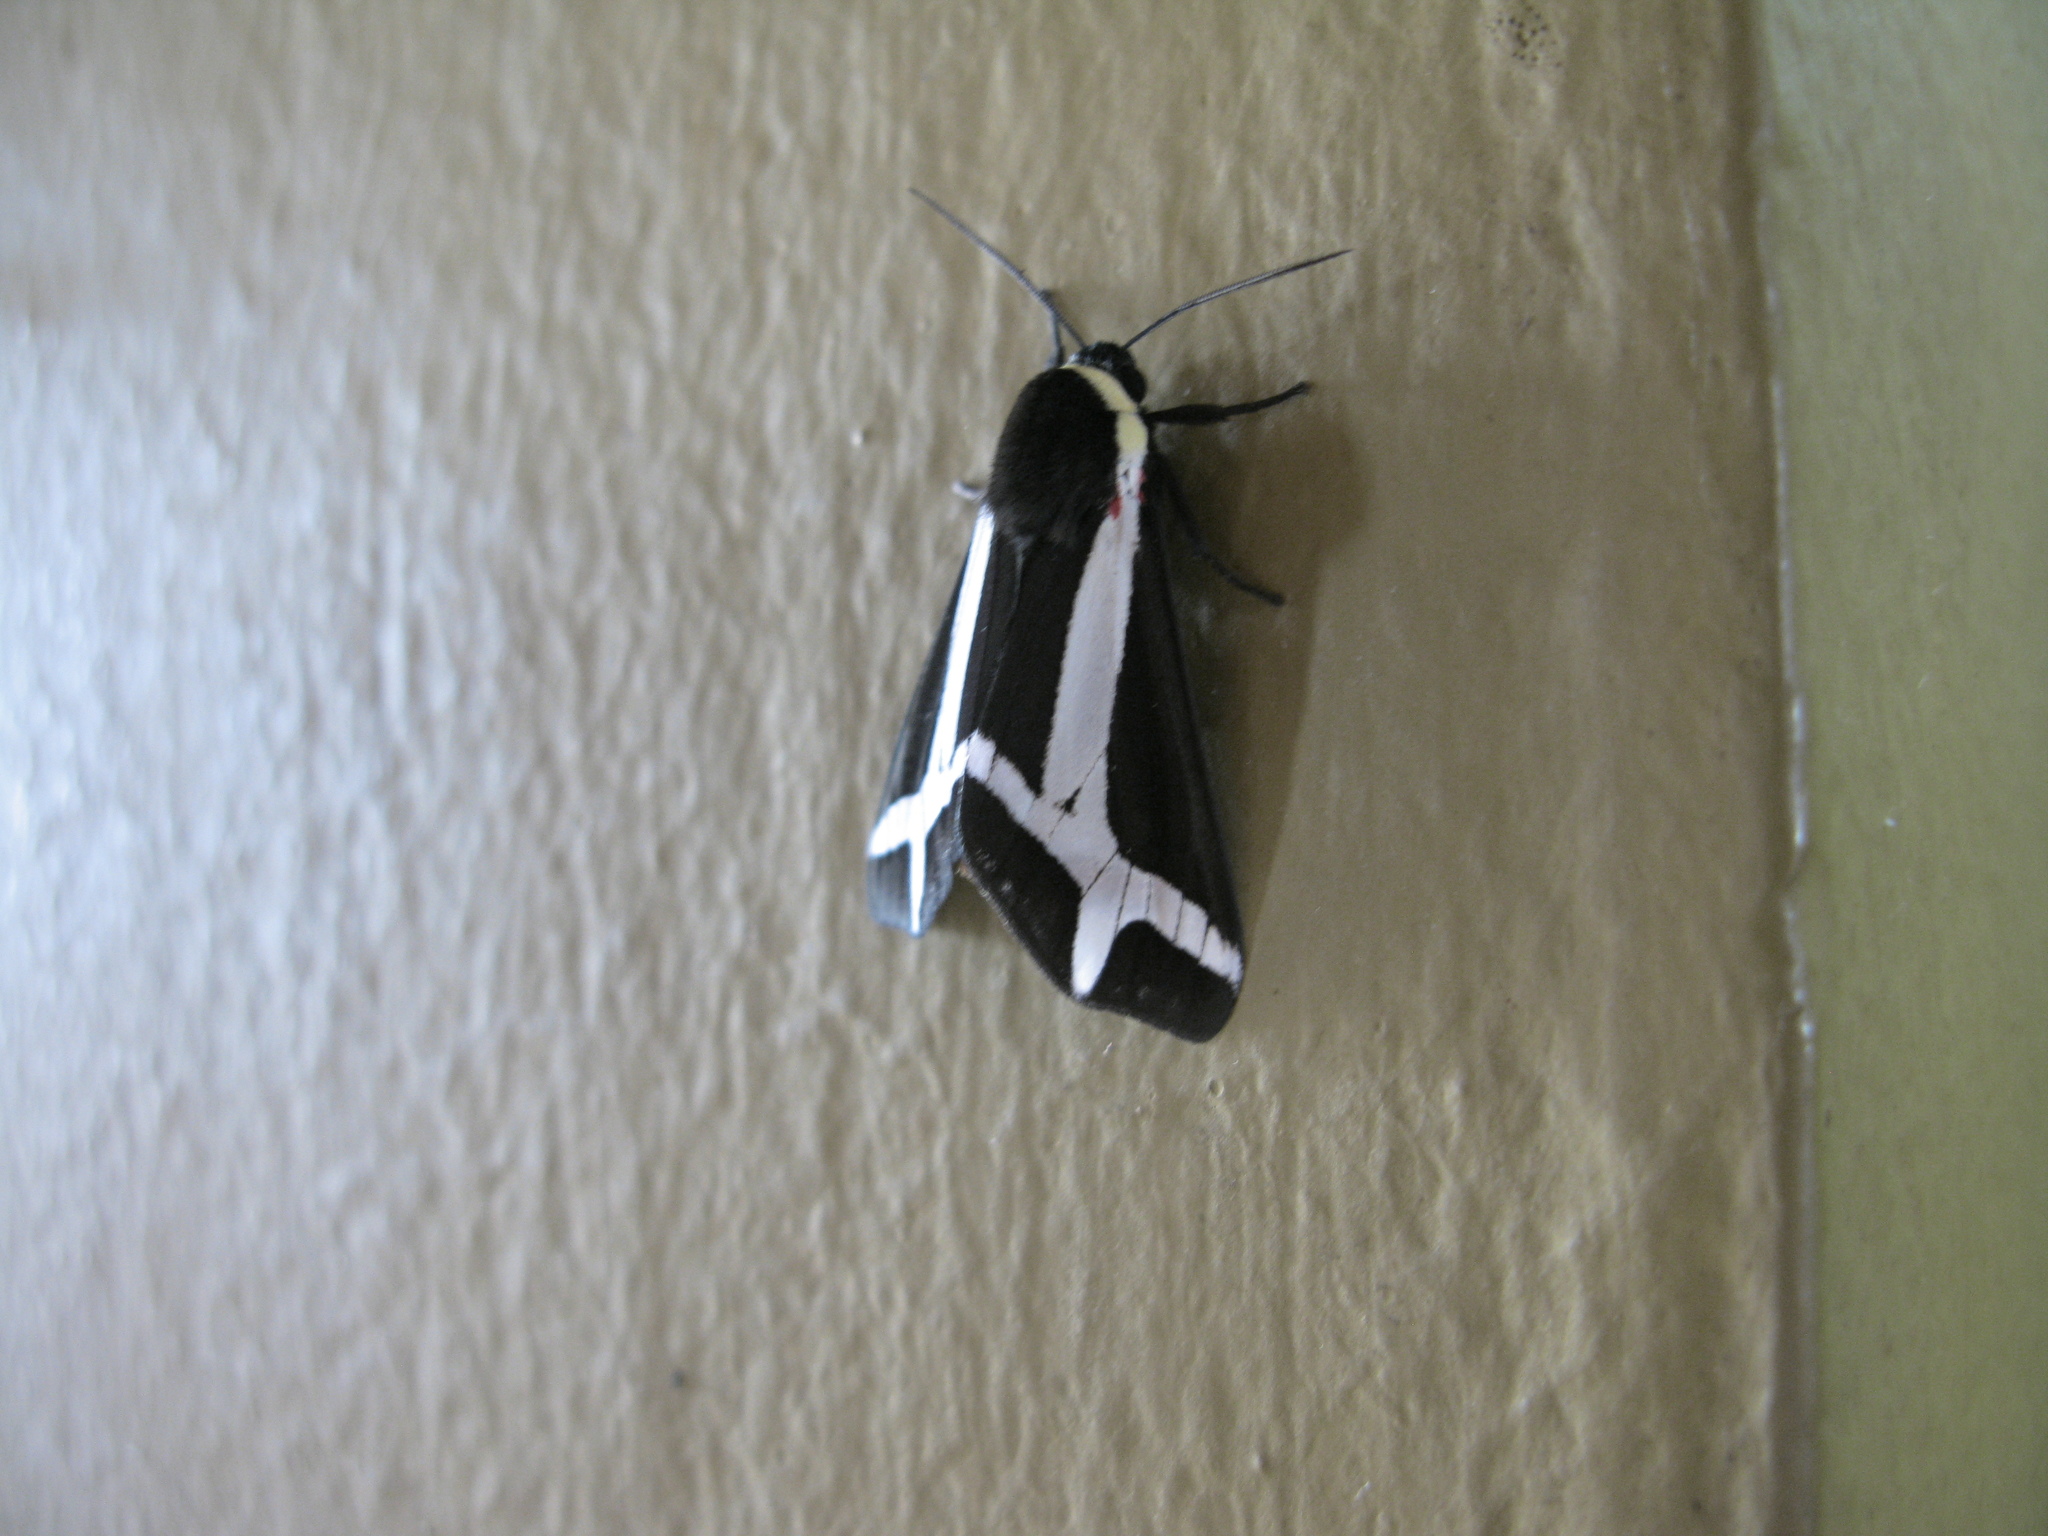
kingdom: Animalia
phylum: Arthropoda
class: Insecta
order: Lepidoptera
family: Erebidae
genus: Dysschema
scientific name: Dysschema sacrifica
